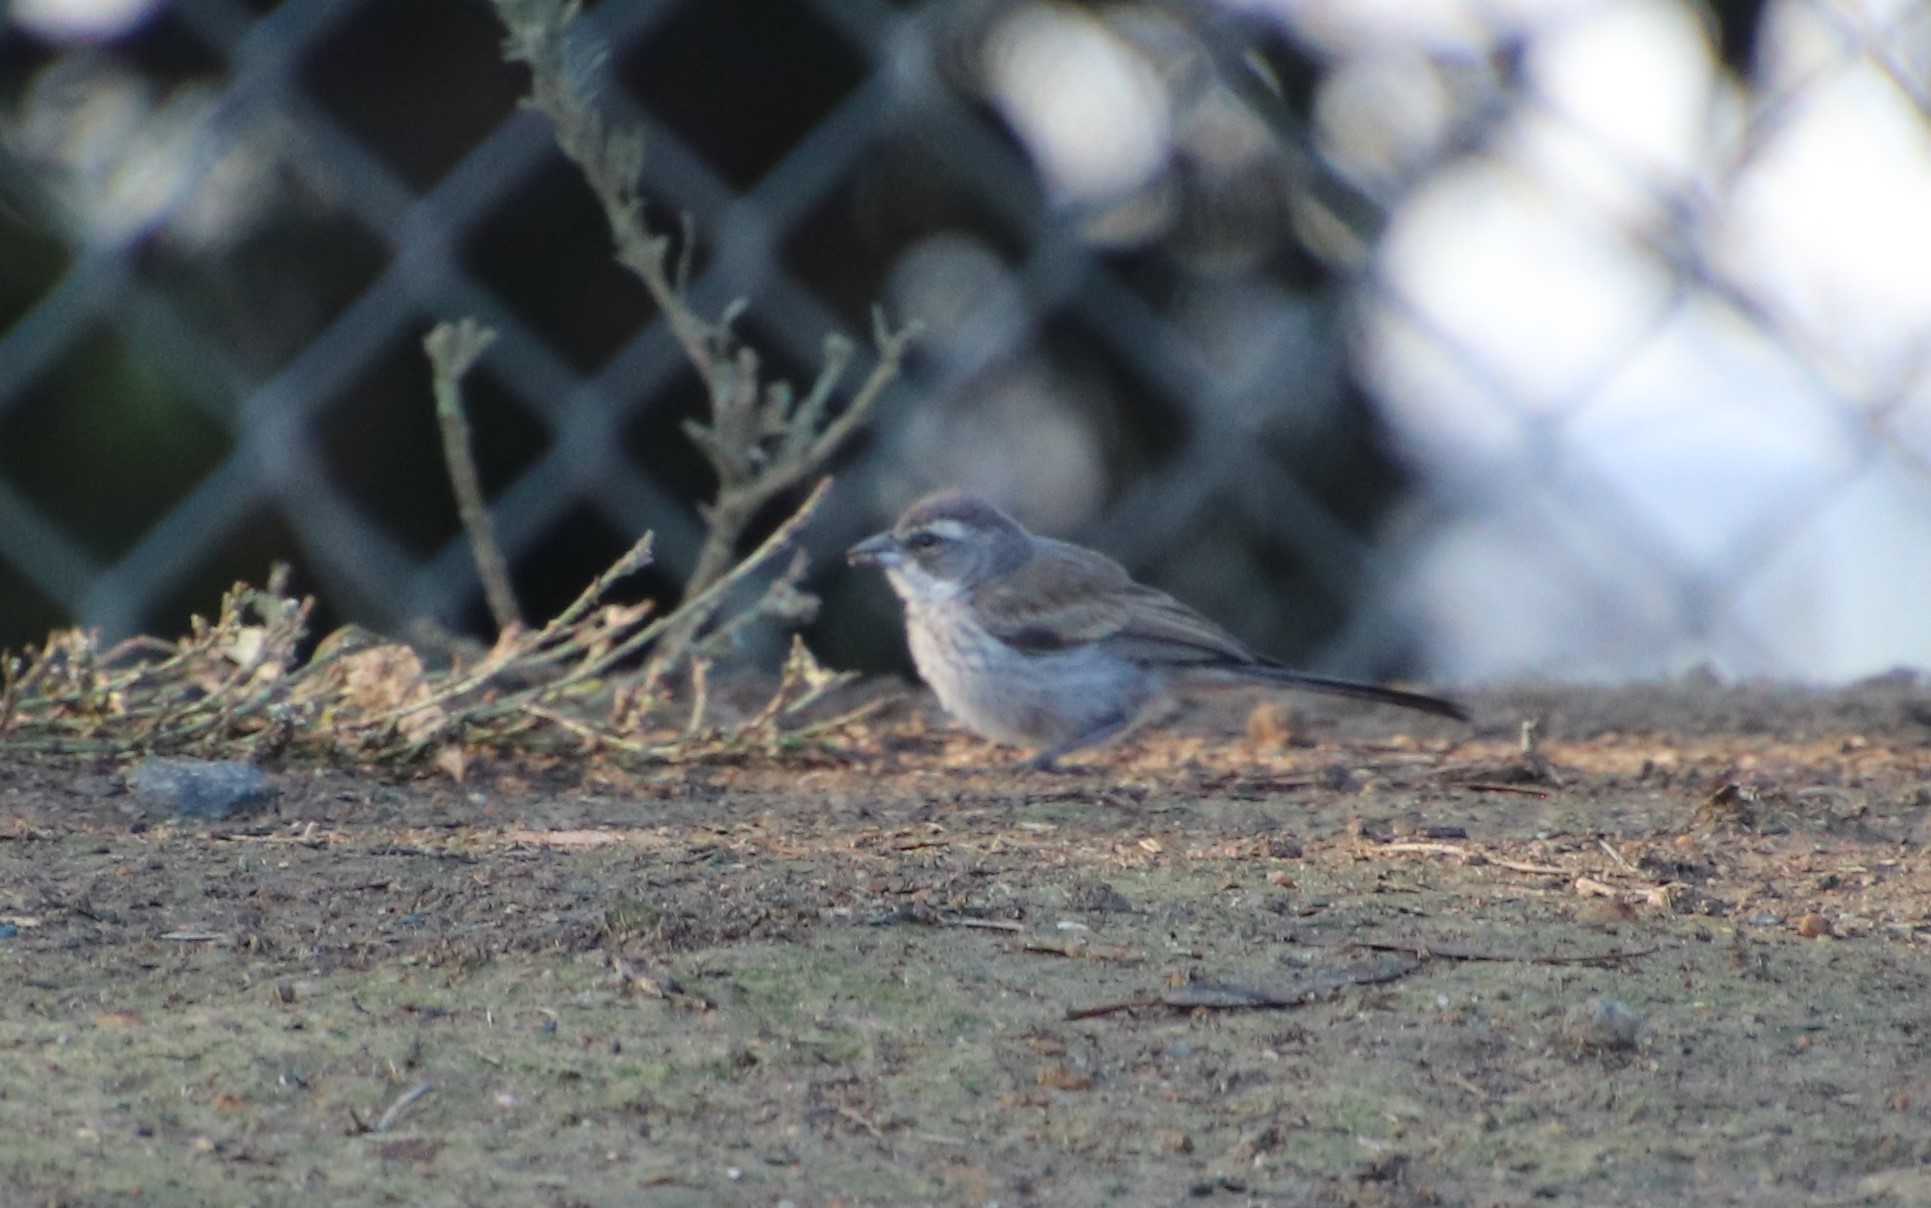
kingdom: Animalia
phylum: Chordata
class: Aves
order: Passeriformes
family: Passerellidae
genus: Amphispiza
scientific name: Amphispiza bilineata
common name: Black-throated sparrow
